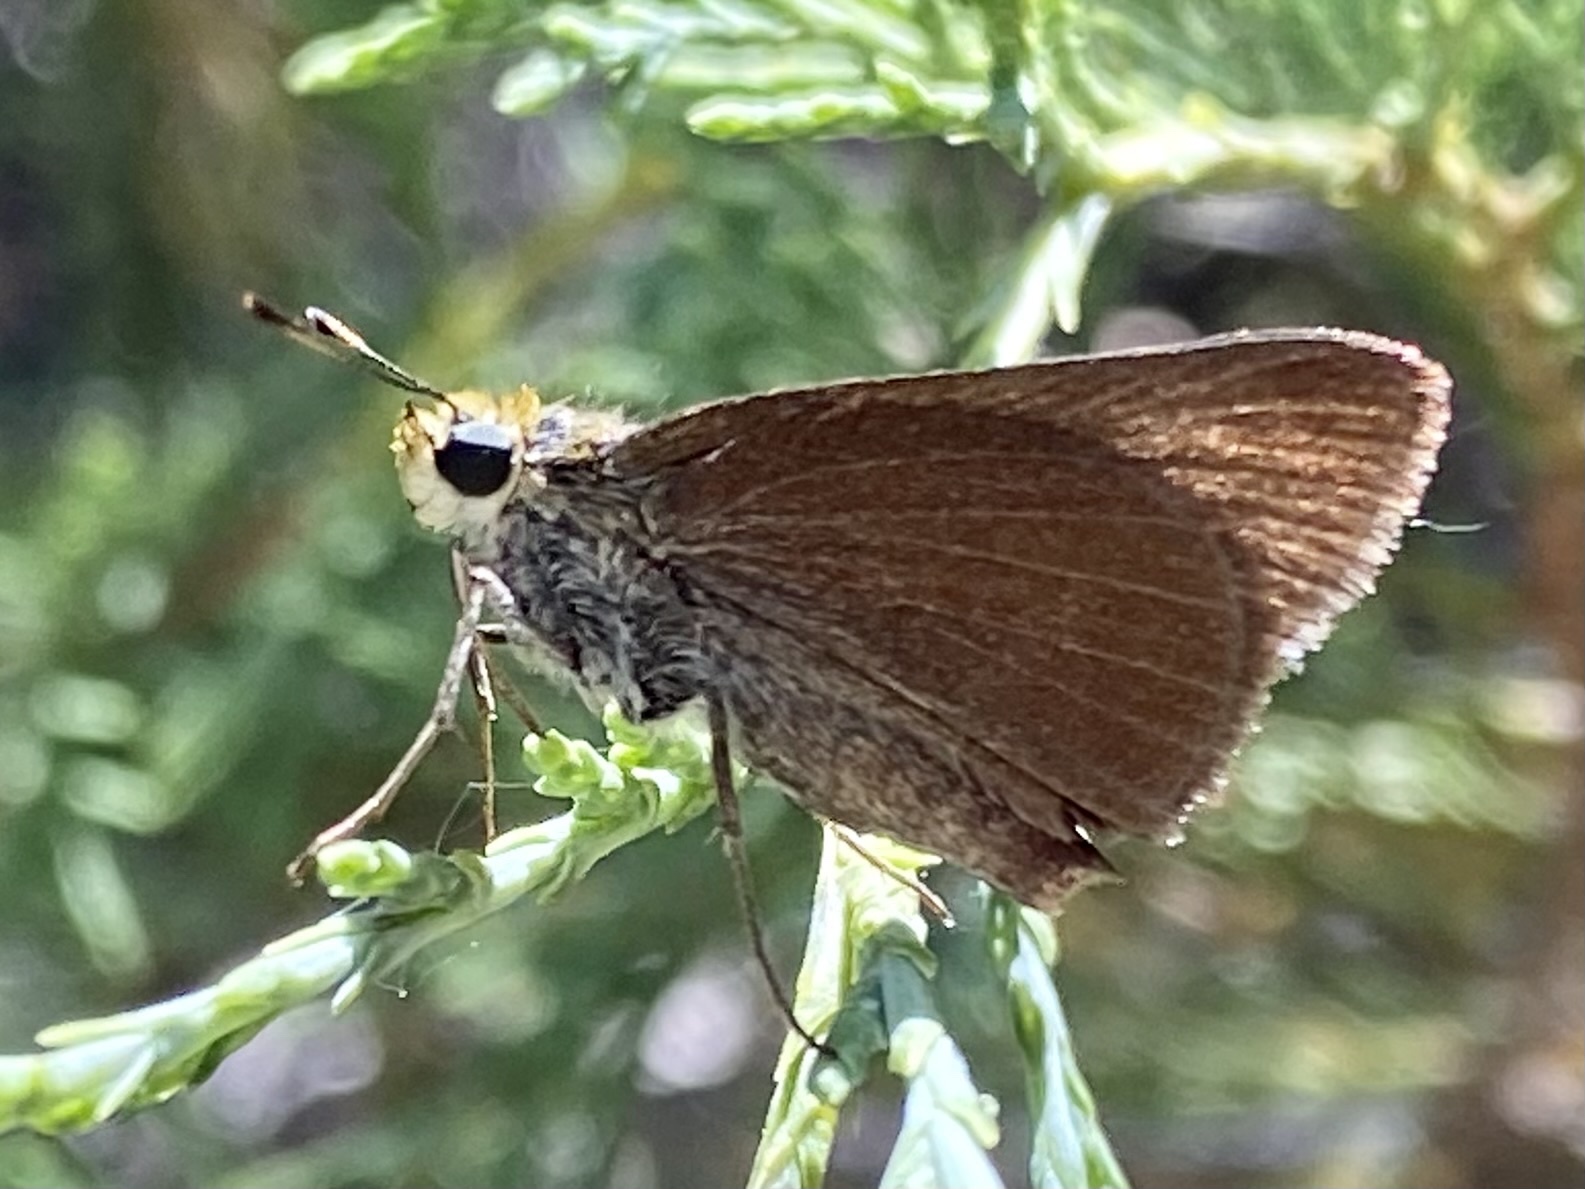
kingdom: Animalia
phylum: Arthropoda
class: Insecta
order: Lepidoptera
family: Hesperiidae
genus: Euphyes
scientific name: Euphyes vestris
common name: Dun skipper
